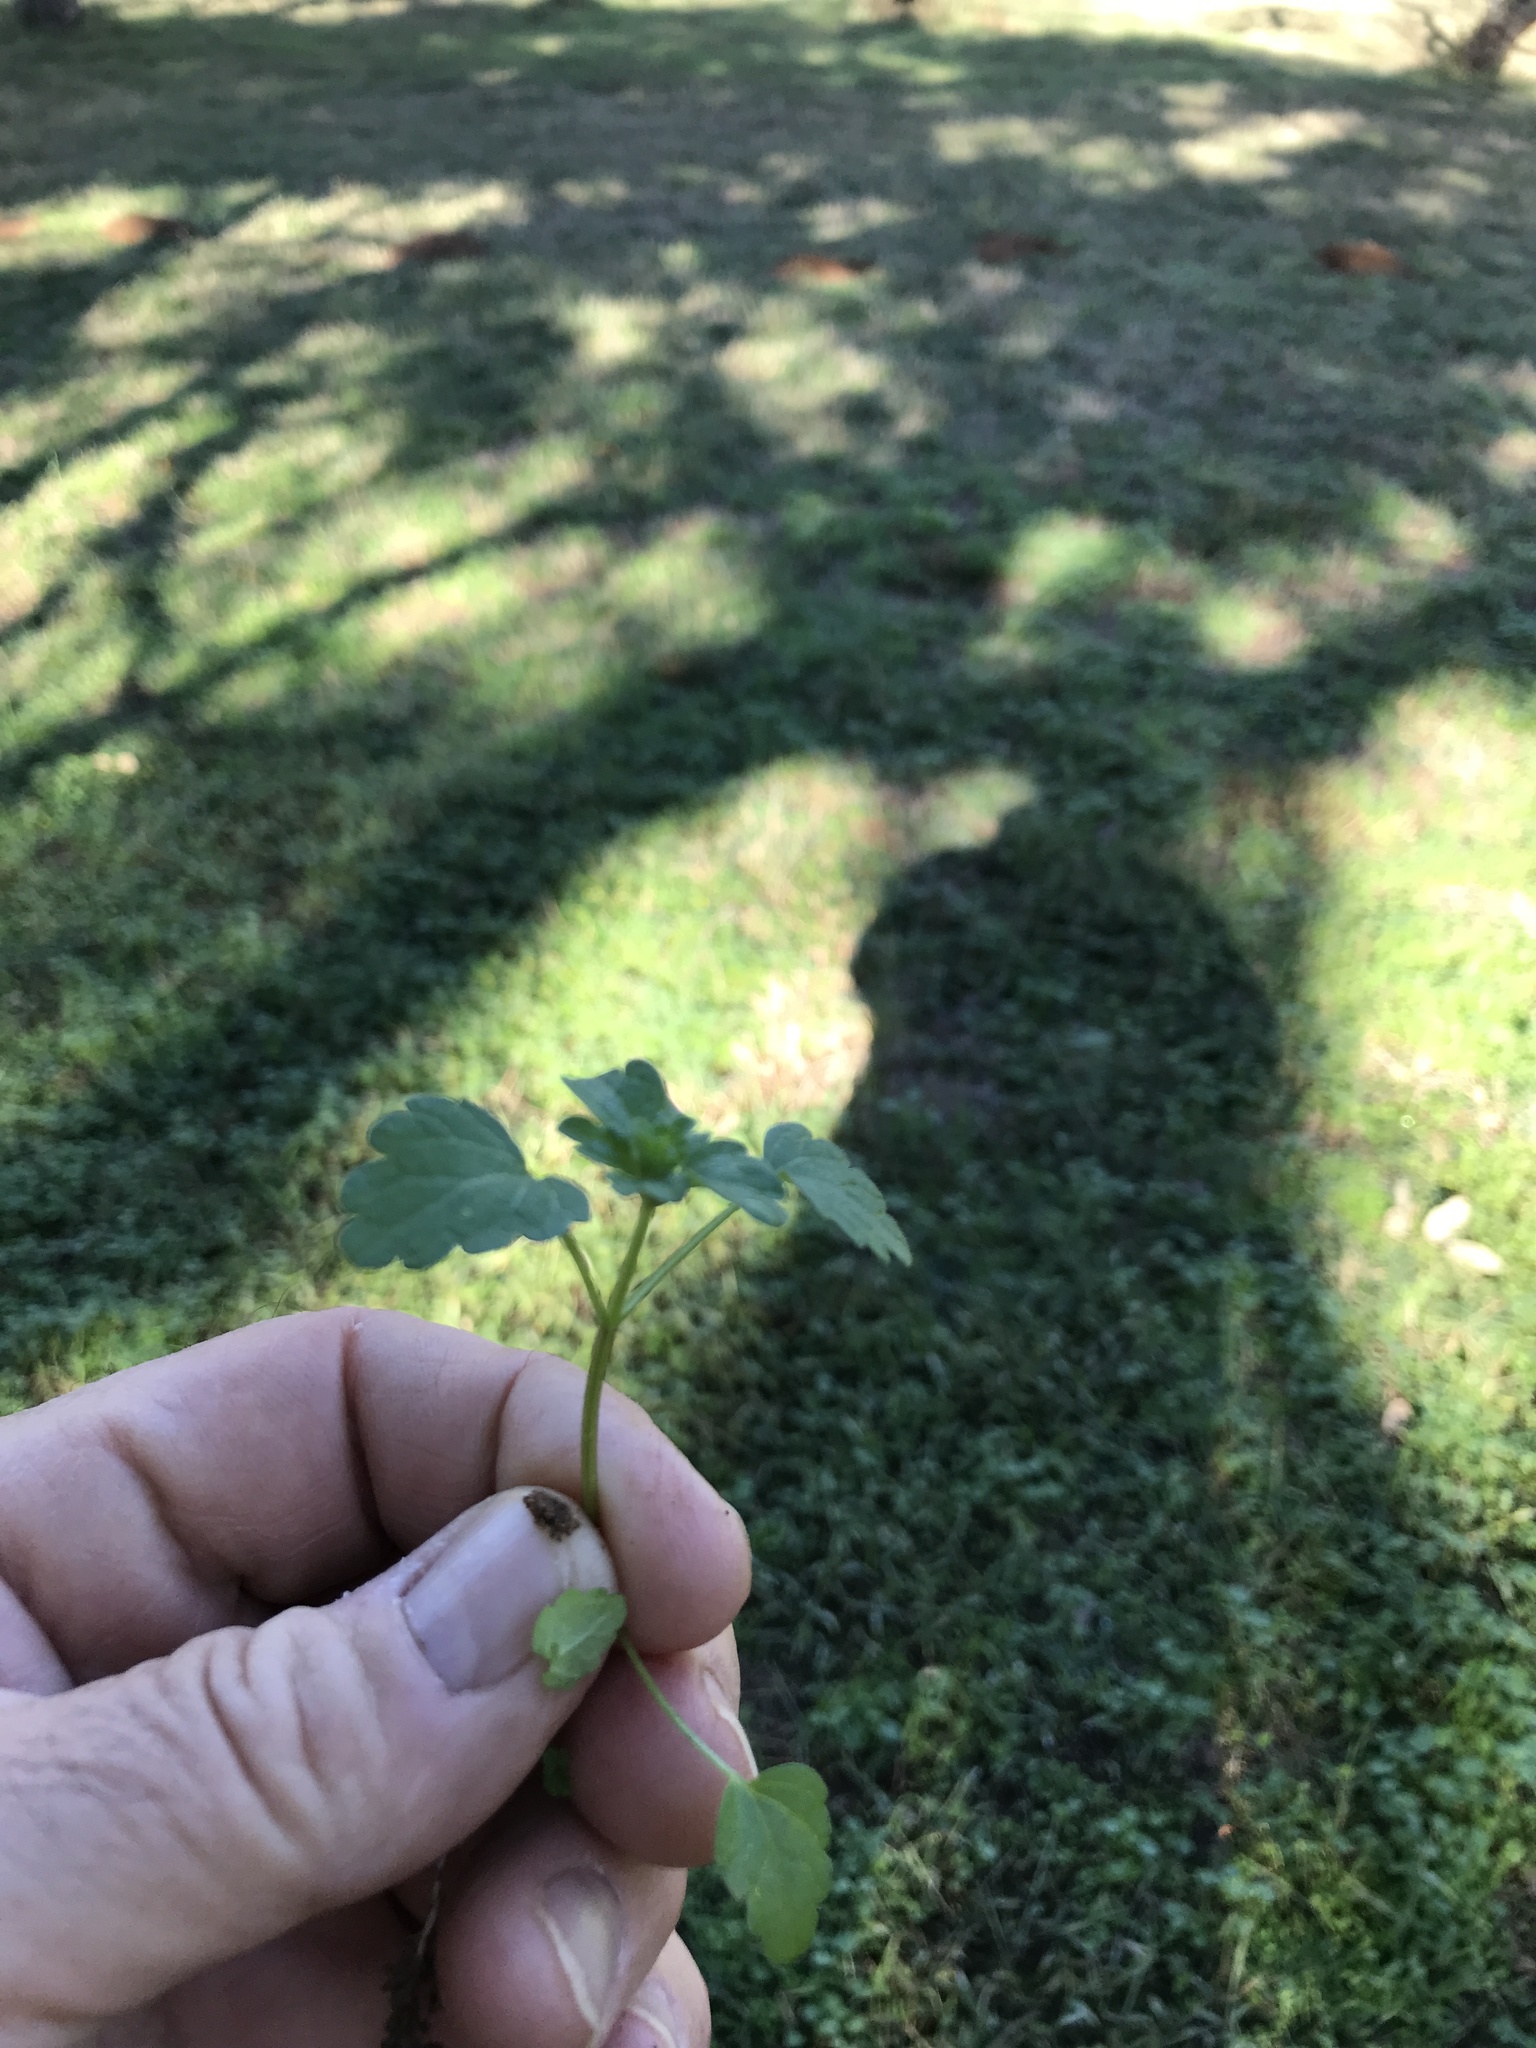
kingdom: Plantae
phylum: Tracheophyta
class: Magnoliopsida
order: Lamiales
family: Lamiaceae
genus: Lamium
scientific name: Lamium amplexicaule
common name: Henbit dead-nettle
